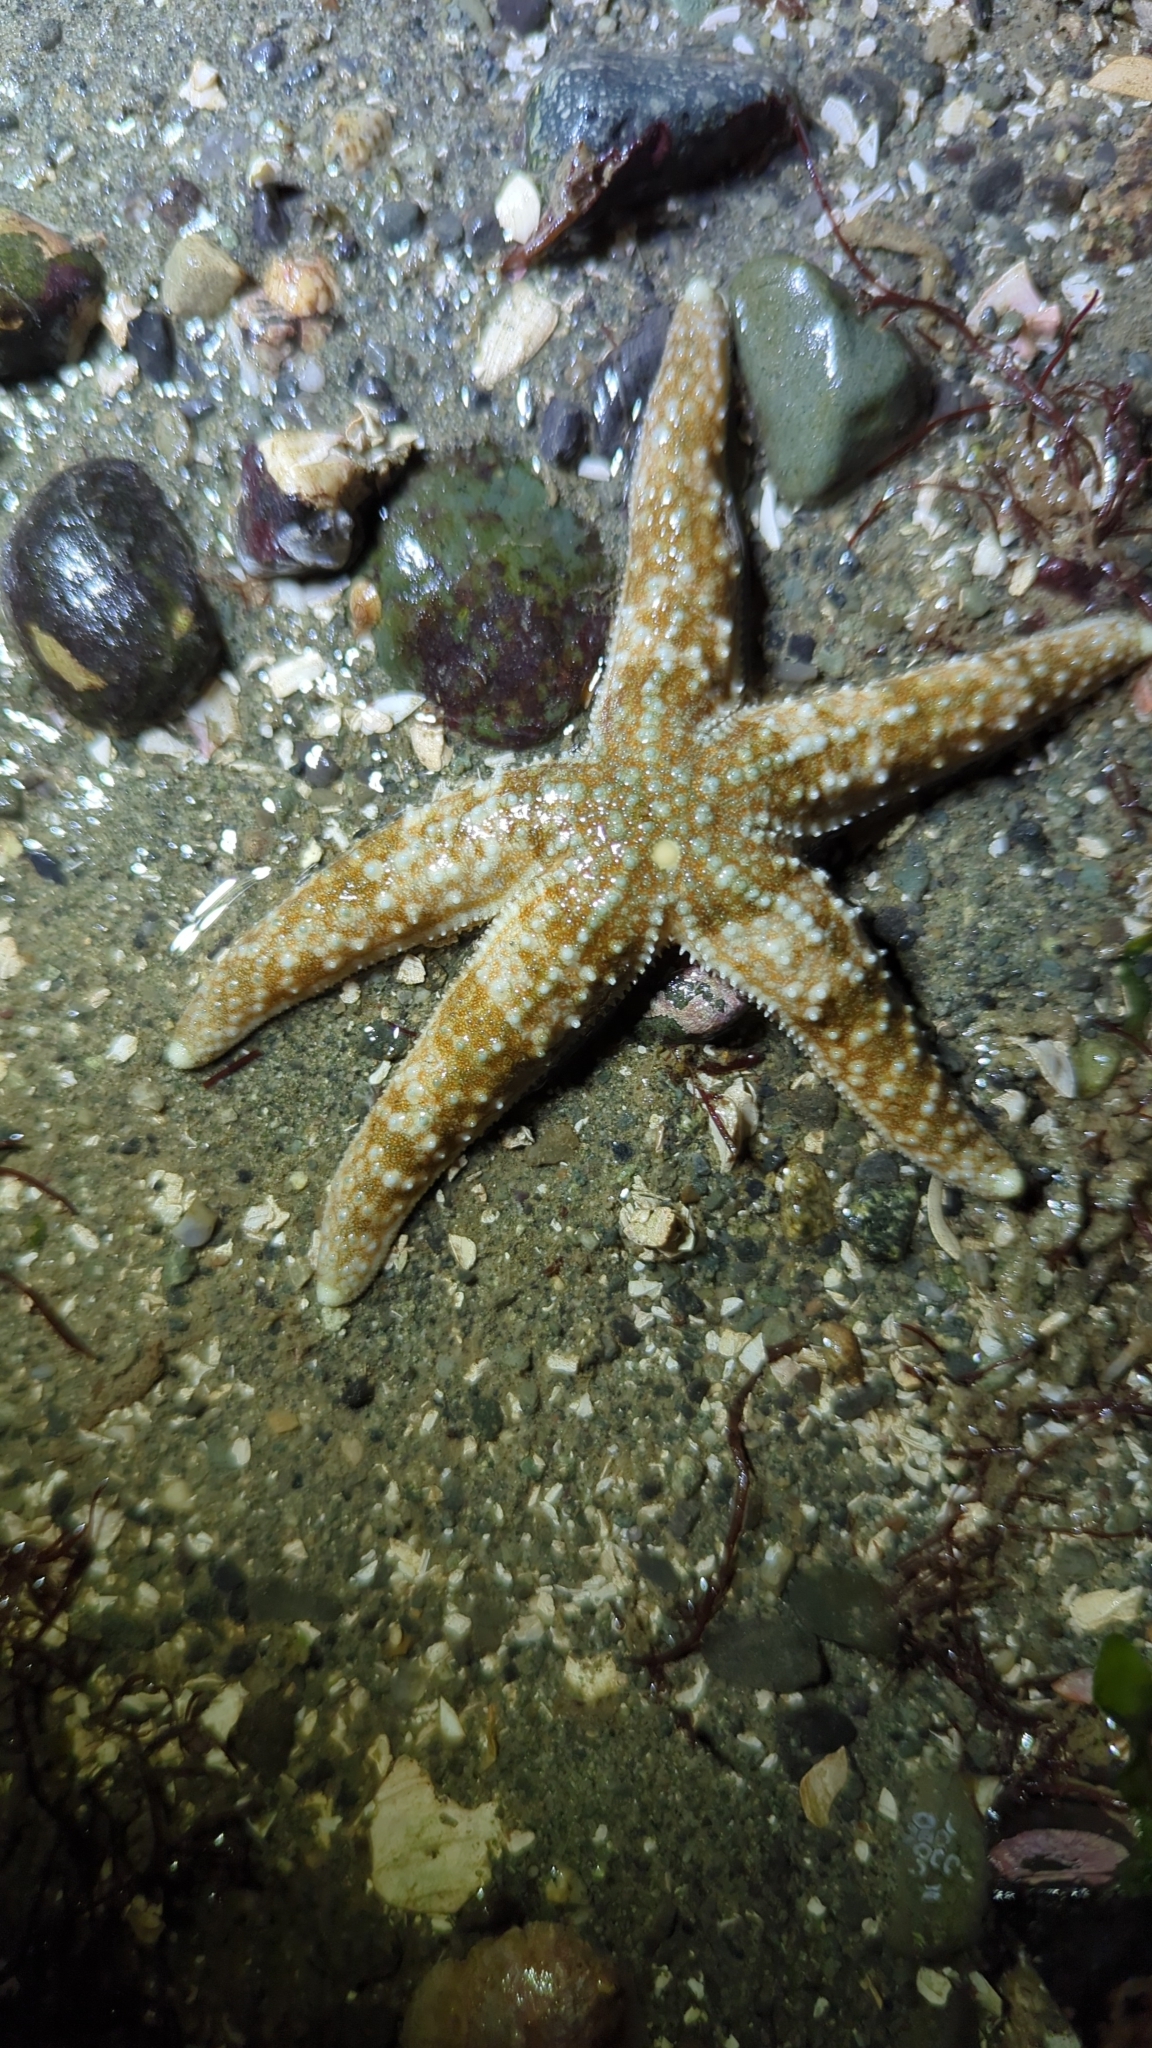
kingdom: Animalia
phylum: Echinodermata
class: Asteroidea
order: Forcipulatida
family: Asteriidae
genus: Evasterias
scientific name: Evasterias troschelii
